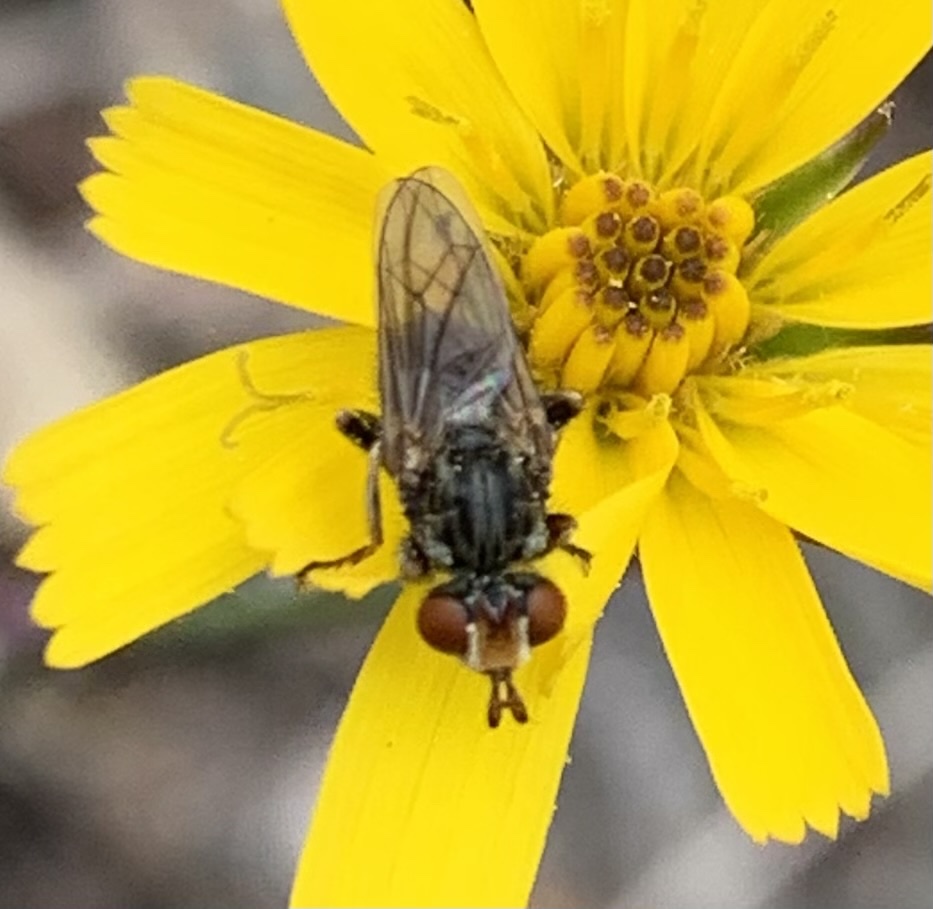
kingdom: Animalia
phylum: Arthropoda
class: Insecta
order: Diptera
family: Conopidae
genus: Zodion
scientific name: Zodion
